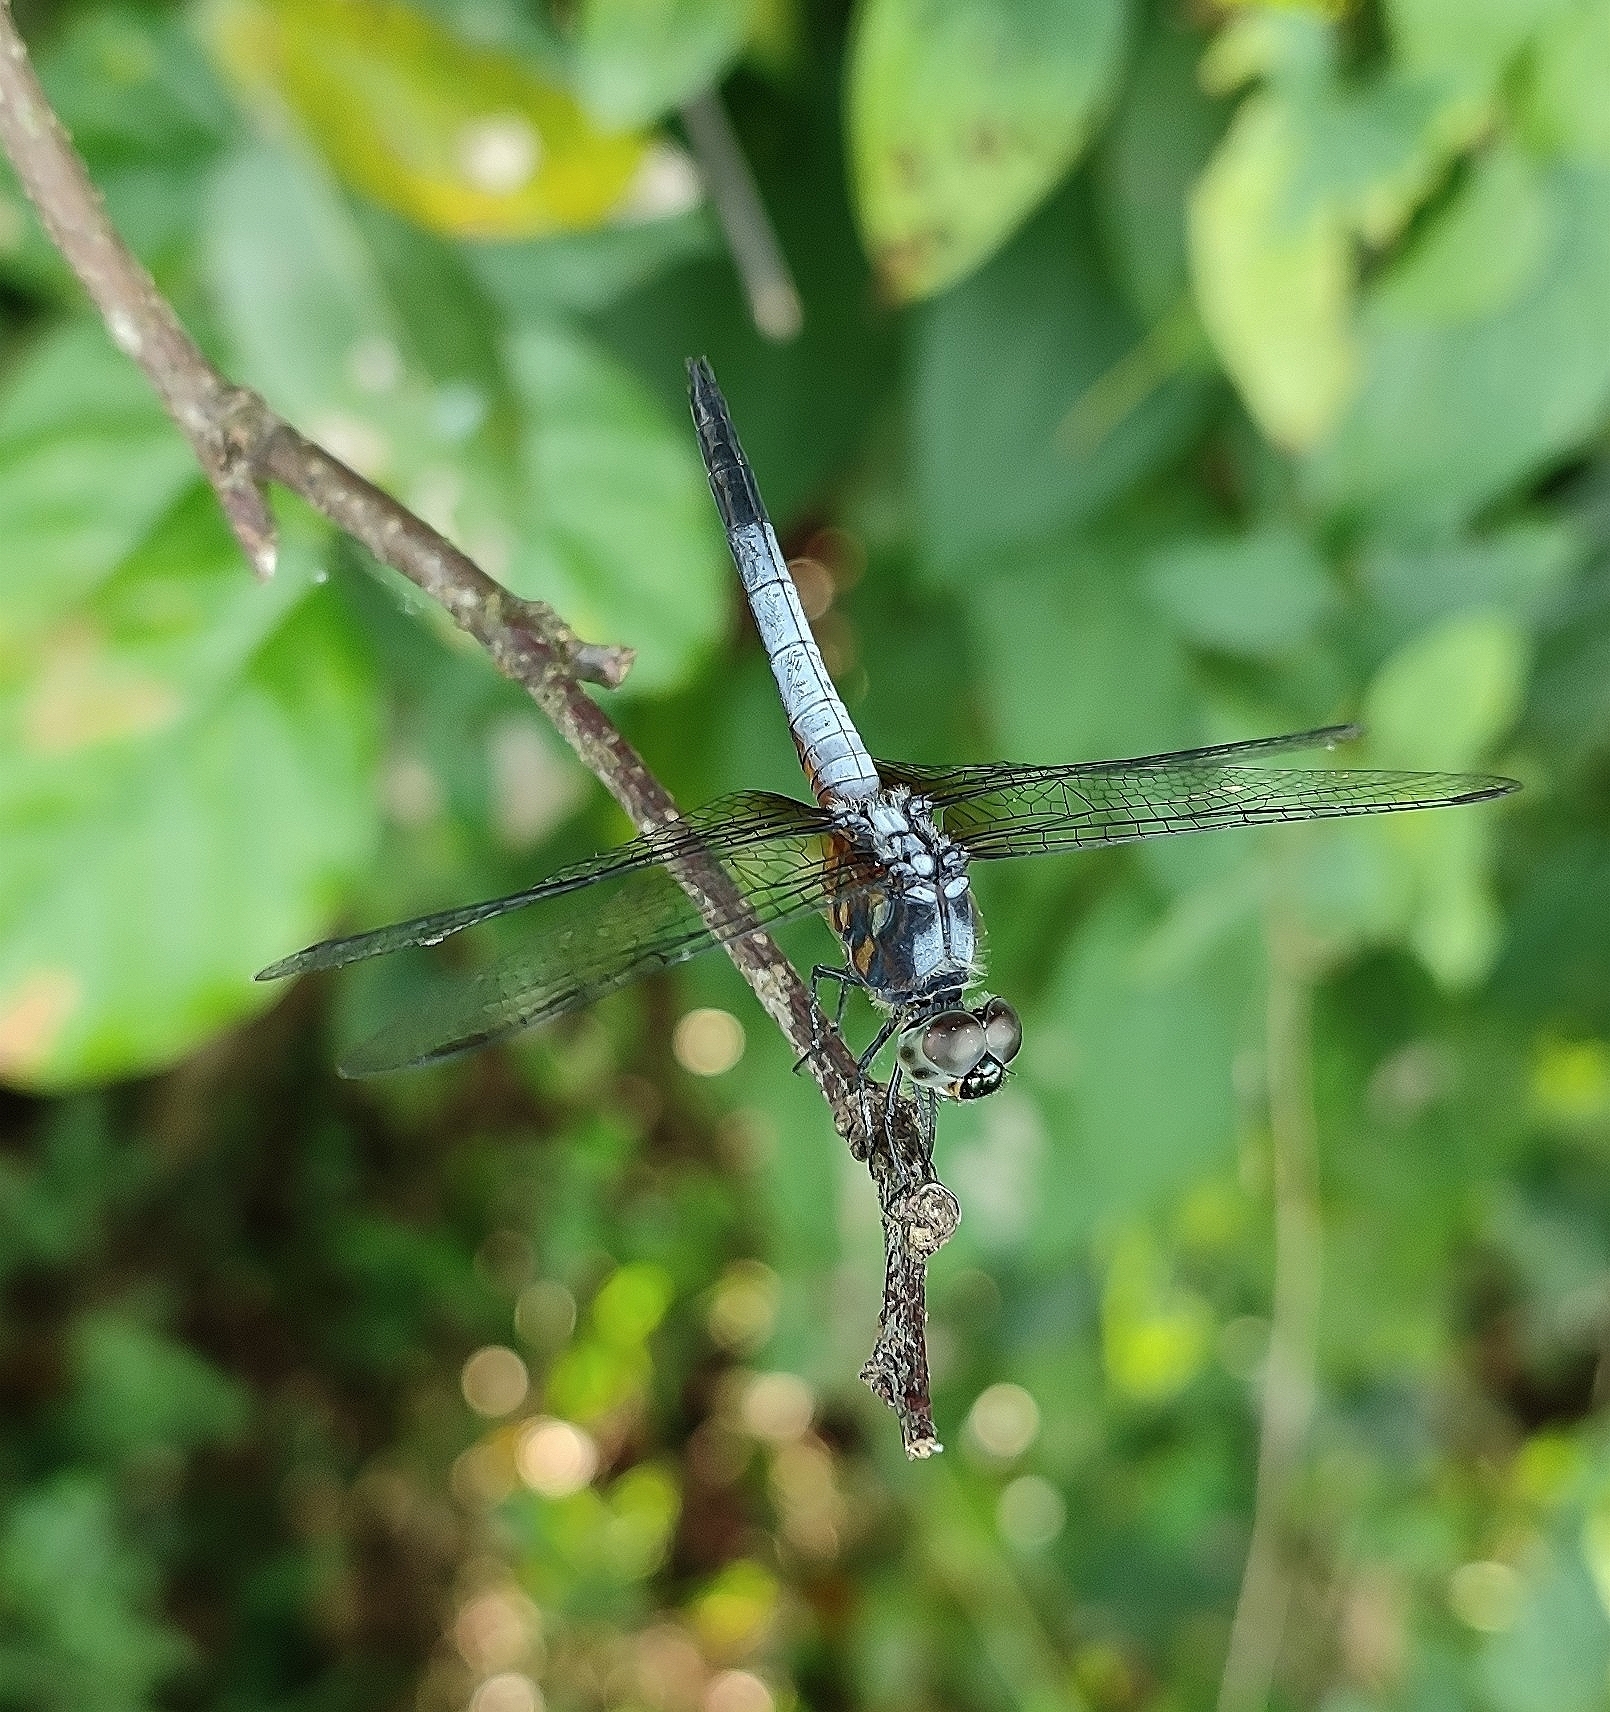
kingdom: Animalia
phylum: Arthropoda
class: Insecta
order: Odonata
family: Libellulidae
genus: Brachydiplax
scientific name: Brachydiplax chalybea
